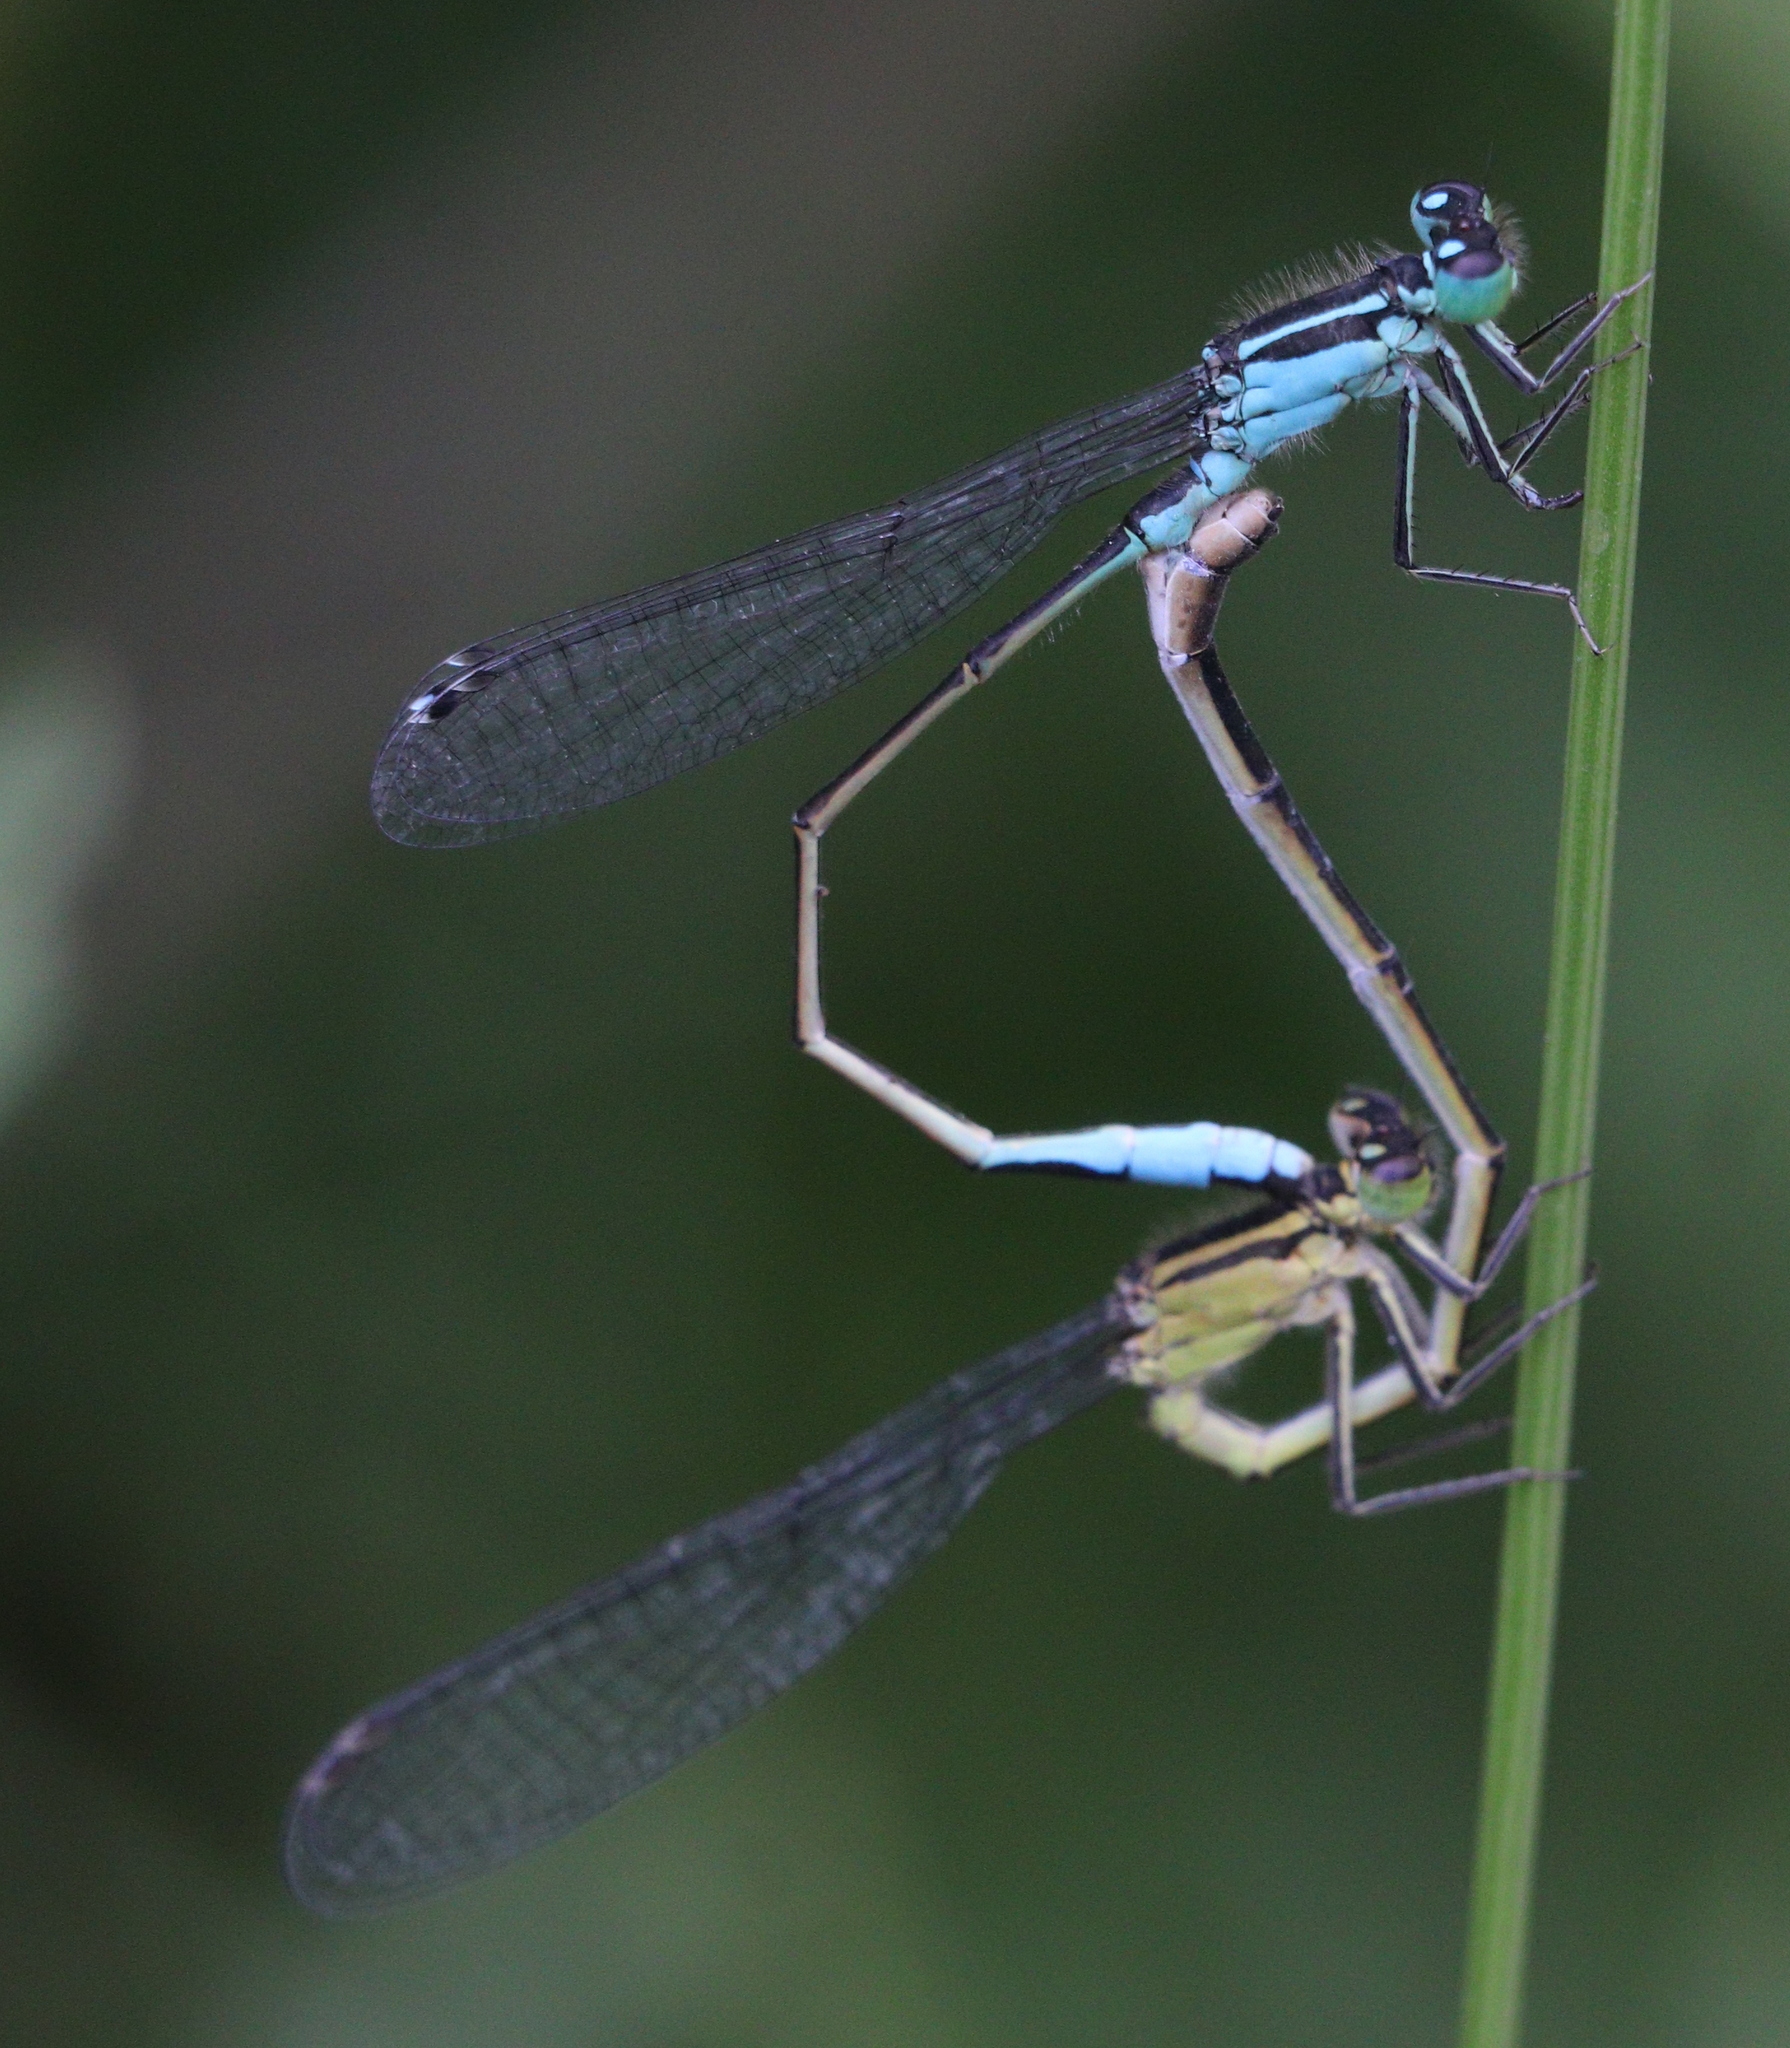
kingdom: Animalia
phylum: Arthropoda
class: Insecta
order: Odonata
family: Coenagrionidae
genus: Ischnura
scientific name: Ischnura elegans
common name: Blue-tailed damselfly
